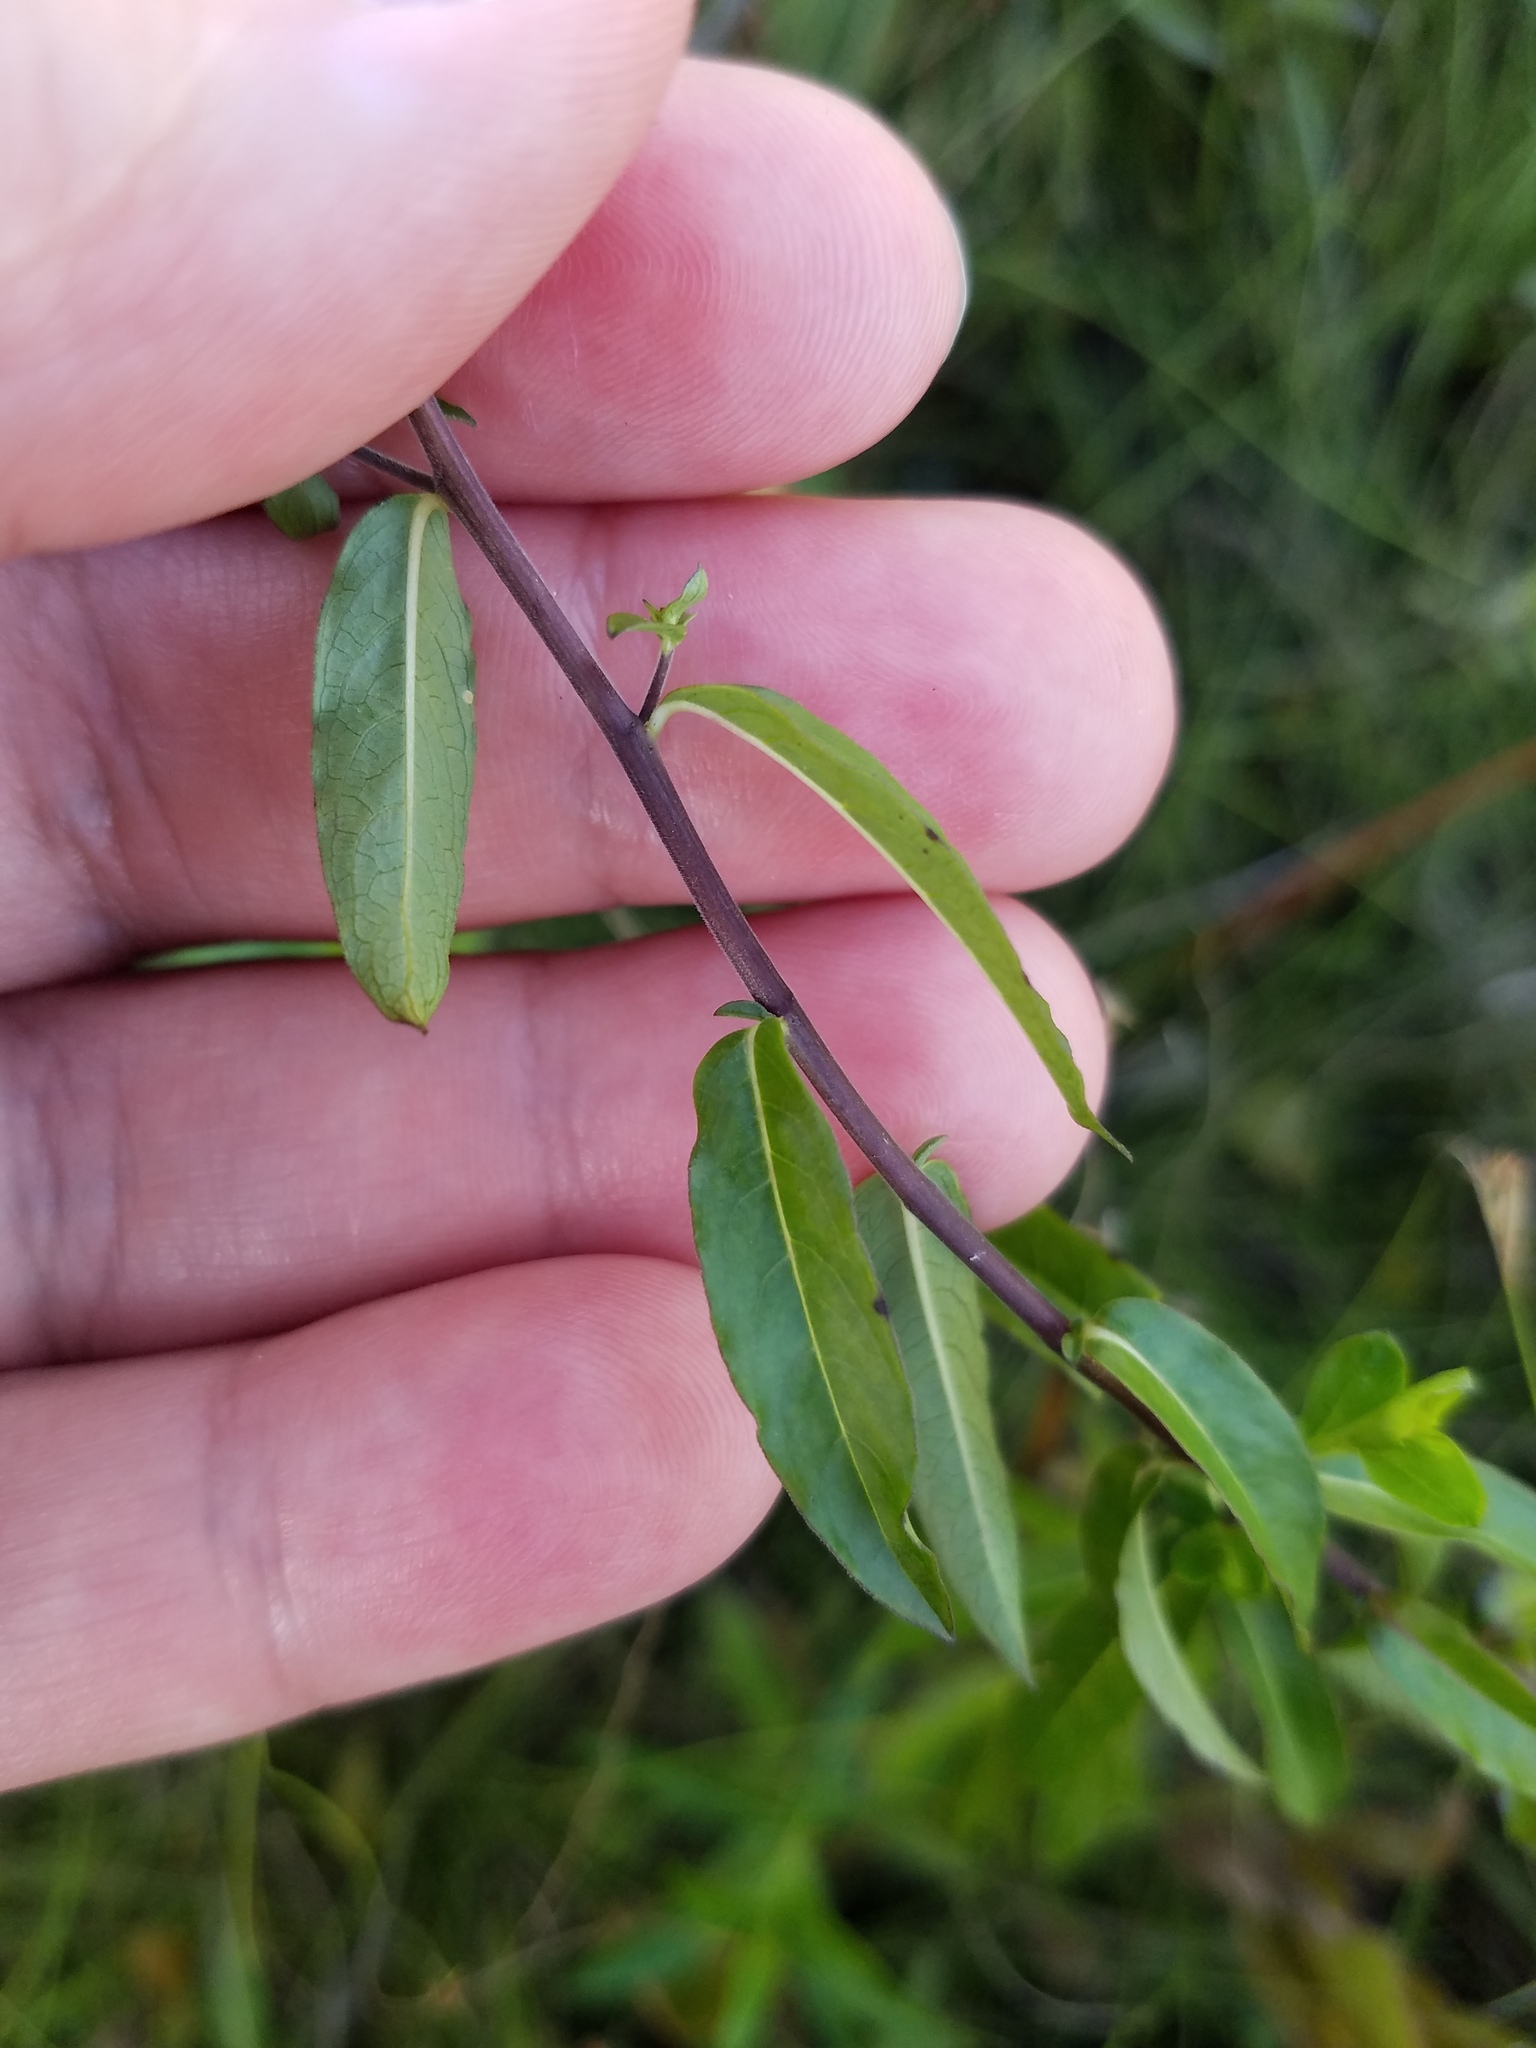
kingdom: Plantae
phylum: Tracheophyta
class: Magnoliopsida
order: Solanales
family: Hydroleaceae
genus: Hydrolea
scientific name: Hydrolea corymbosa
